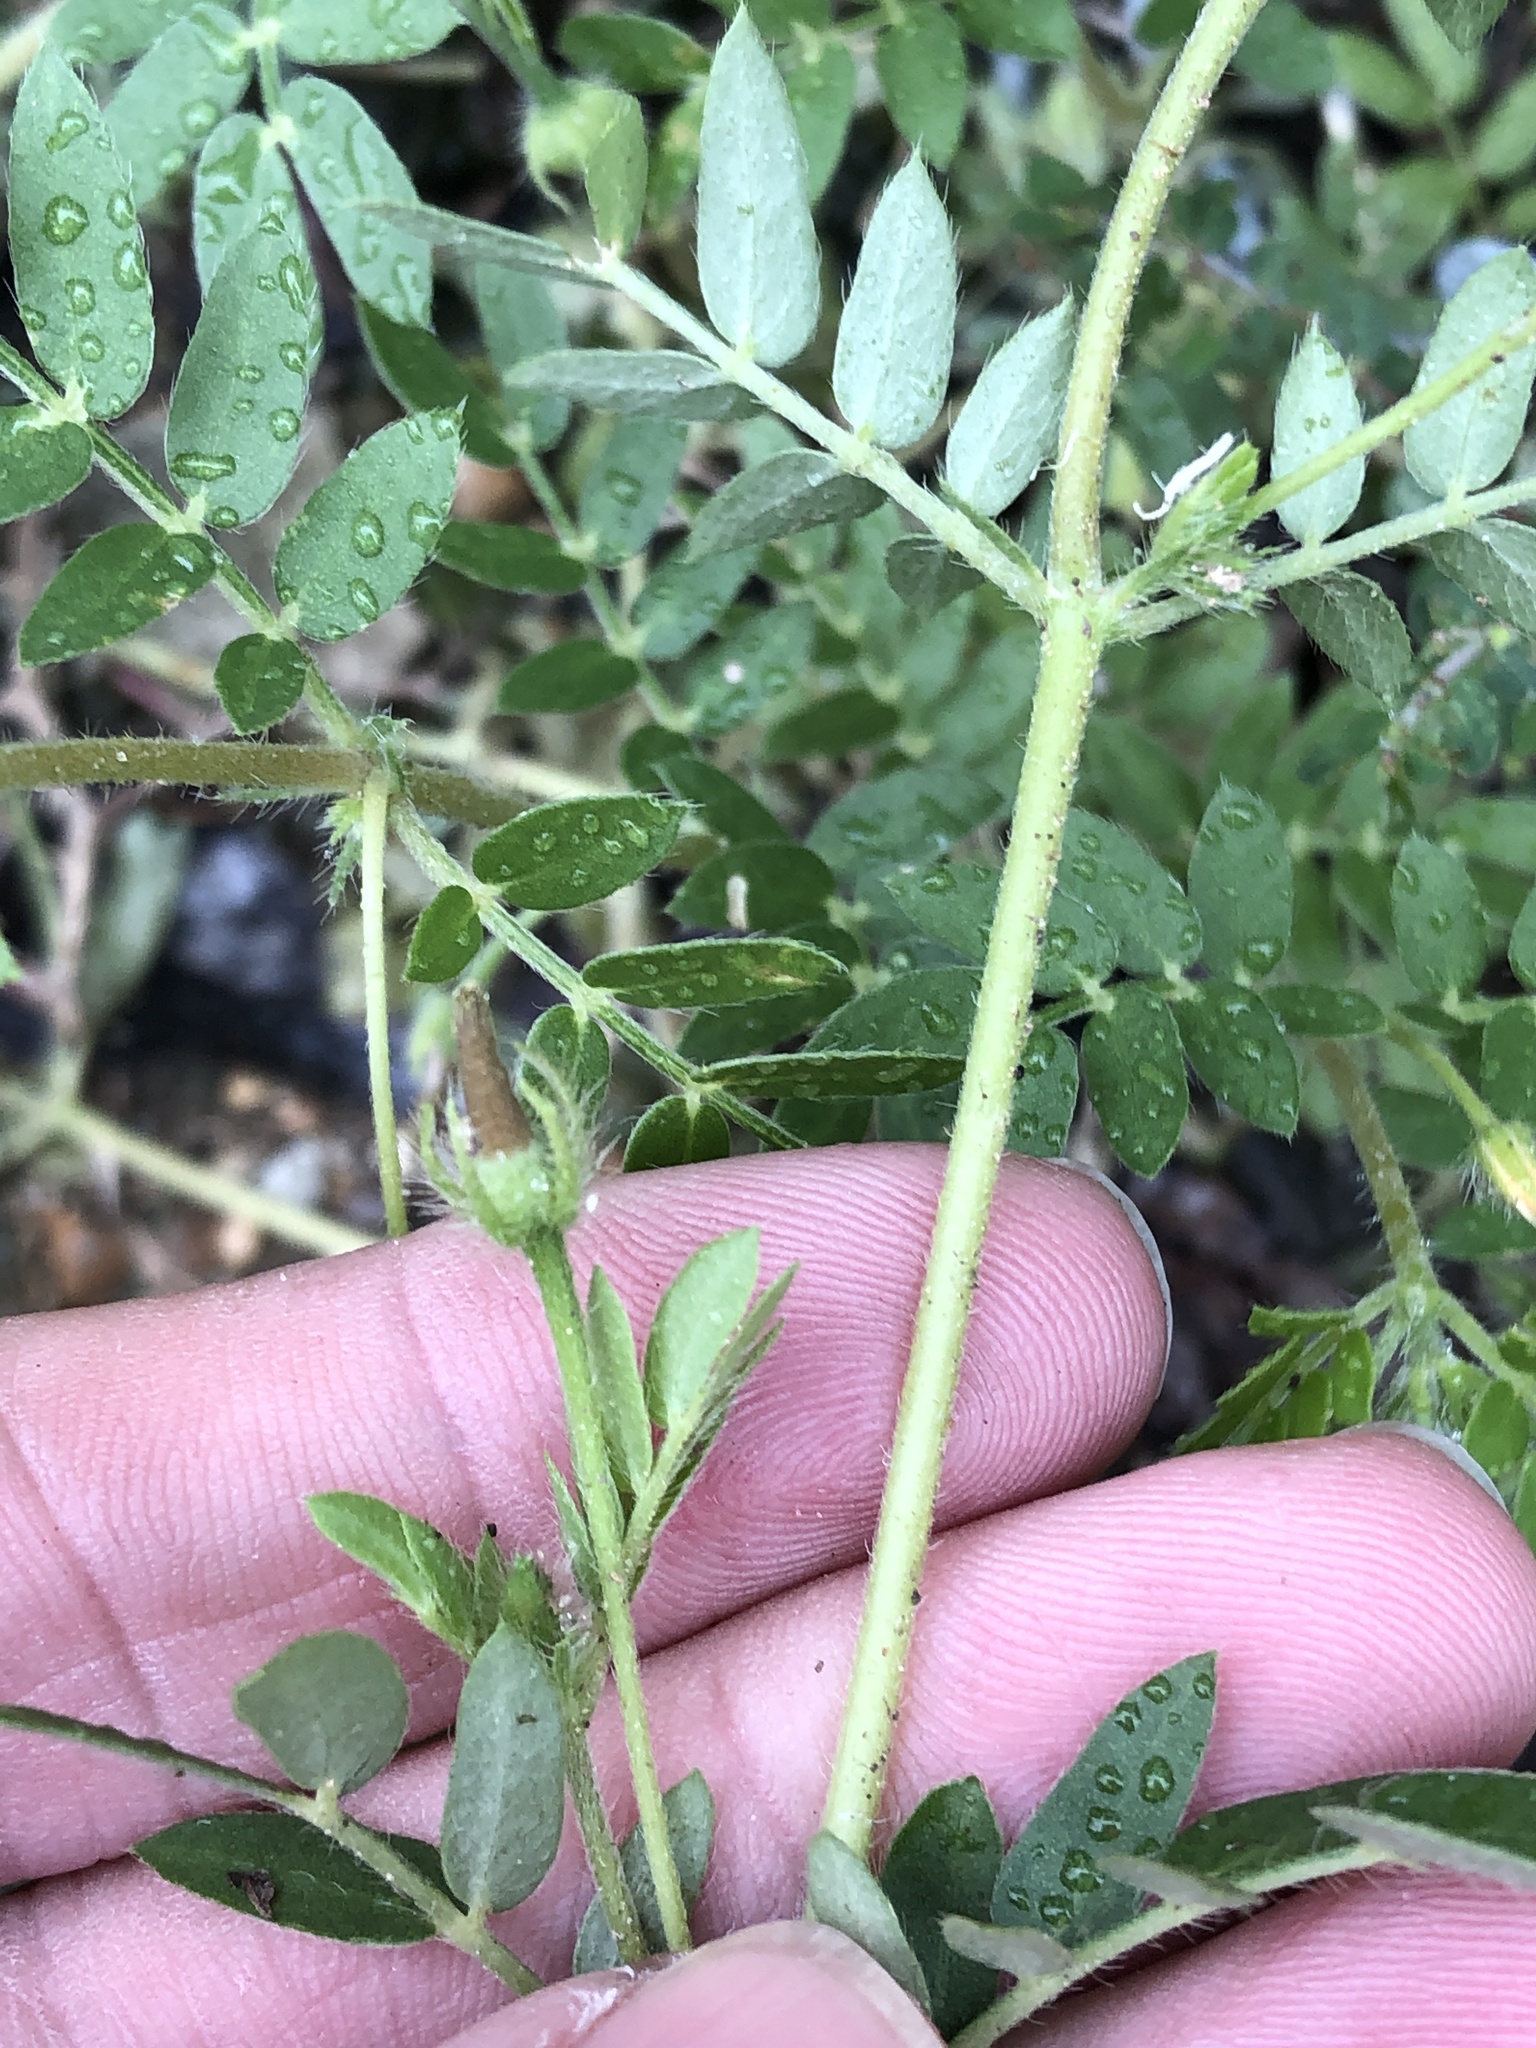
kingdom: Plantae
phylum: Tracheophyta
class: Magnoliopsida
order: Zygophyllales
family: Zygophyllaceae
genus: Kallstroemia
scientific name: Kallstroemia parviflora
